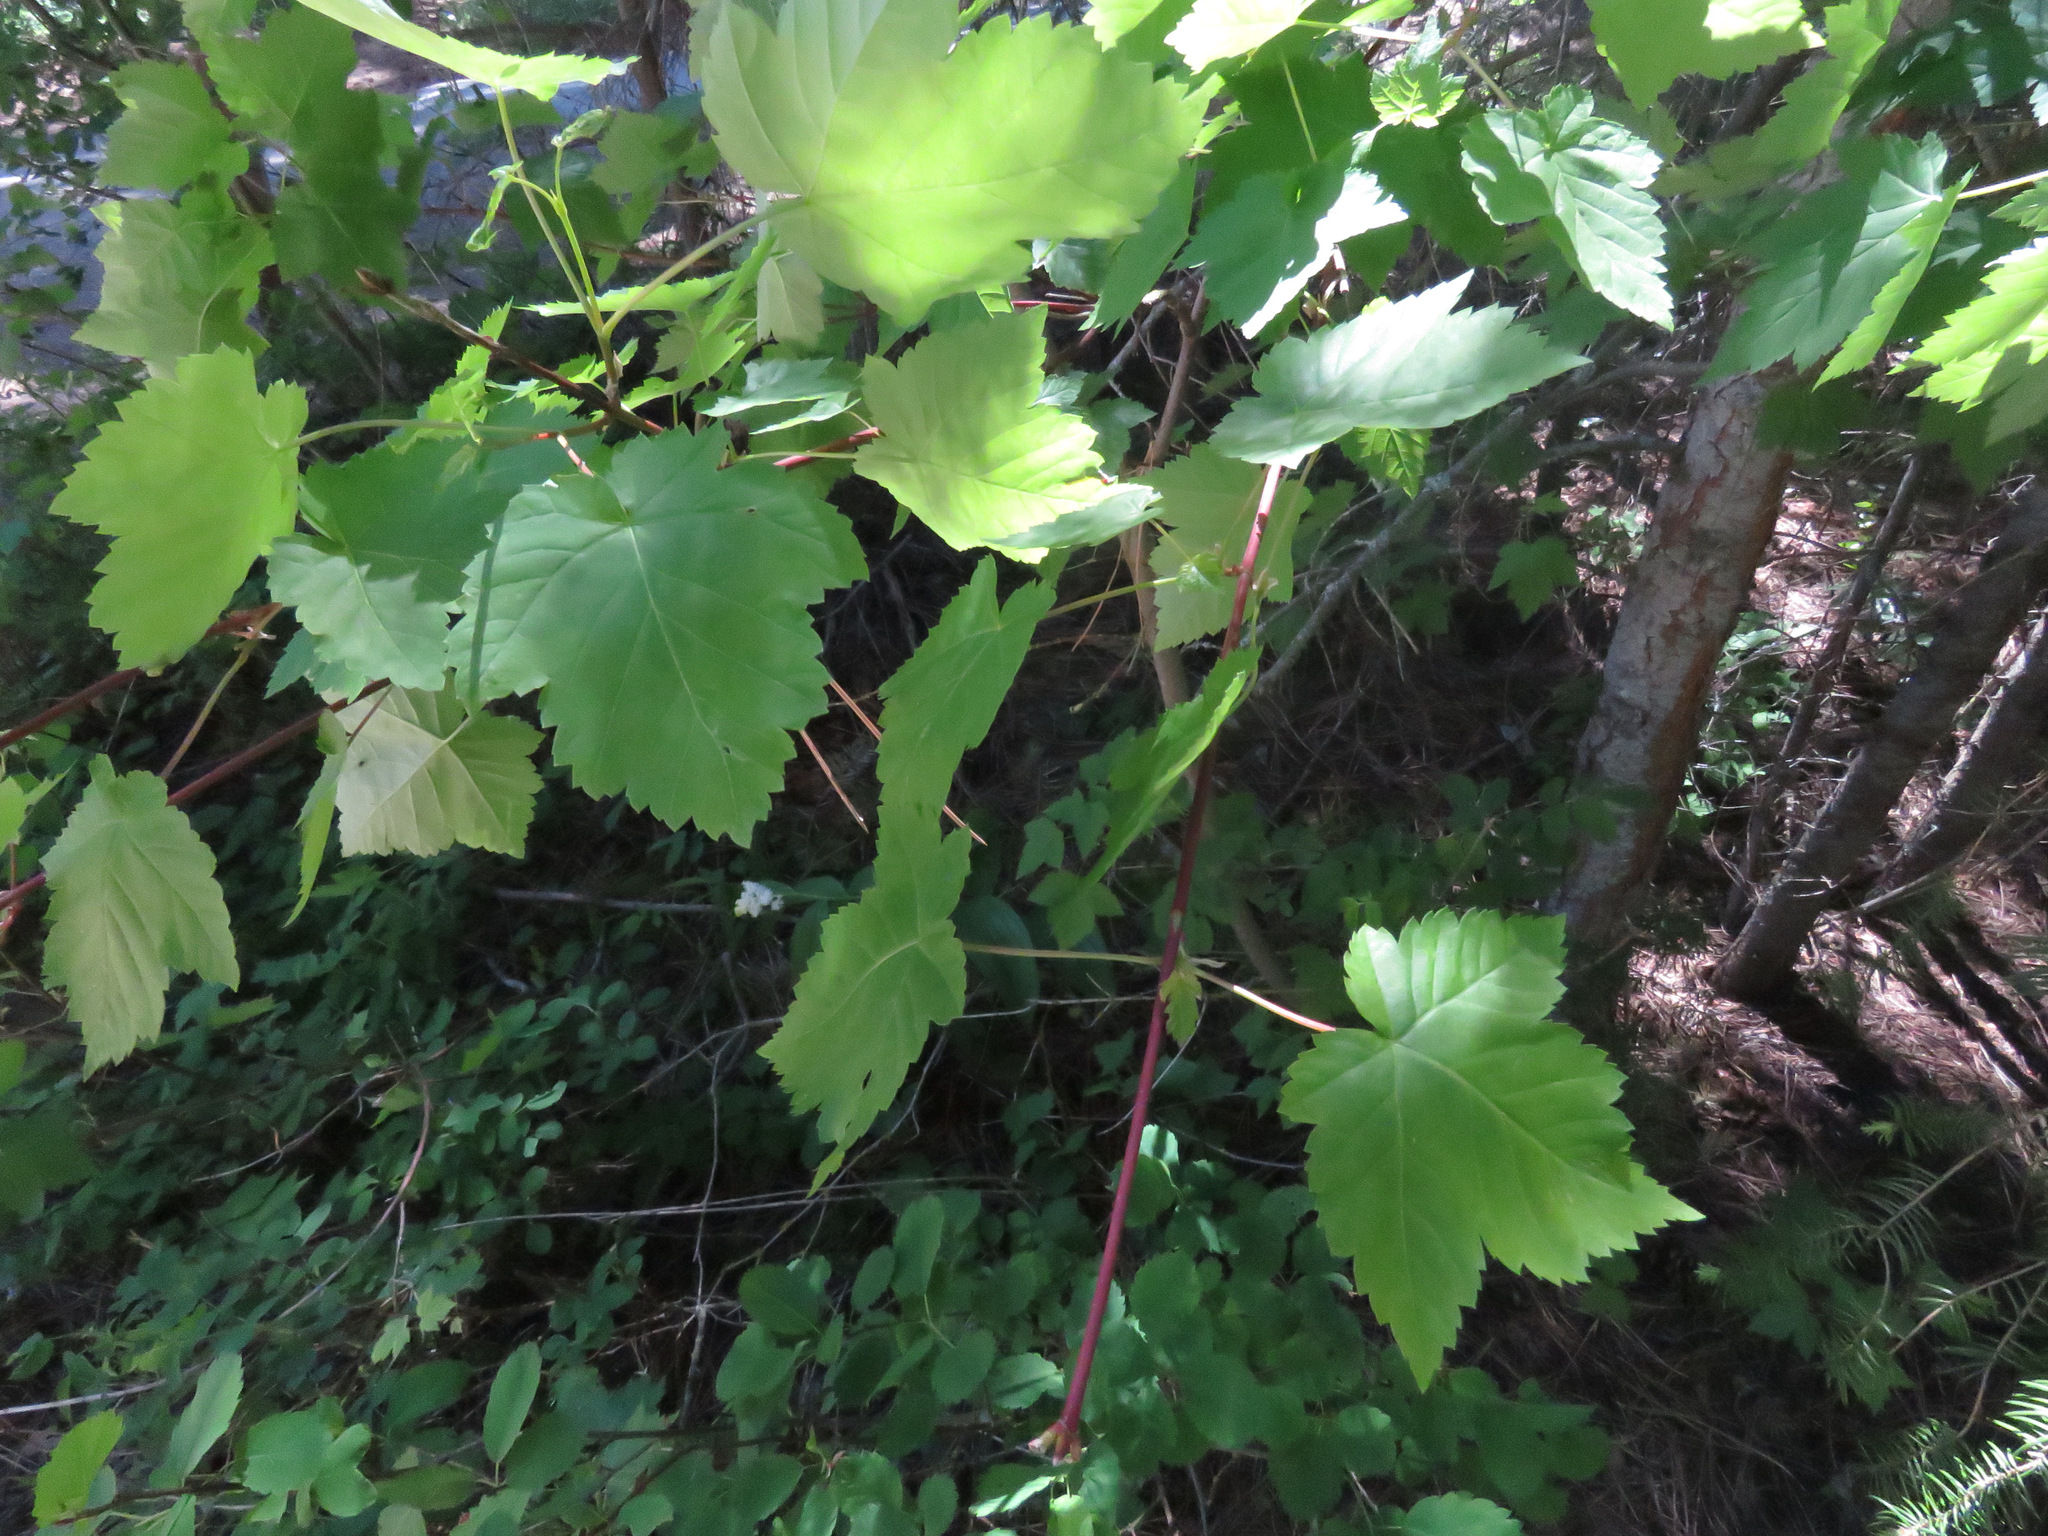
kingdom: Plantae
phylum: Tracheophyta
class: Magnoliopsida
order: Sapindales
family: Sapindaceae
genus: Acer
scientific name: Acer glabrum
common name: Rocky mountain maple
